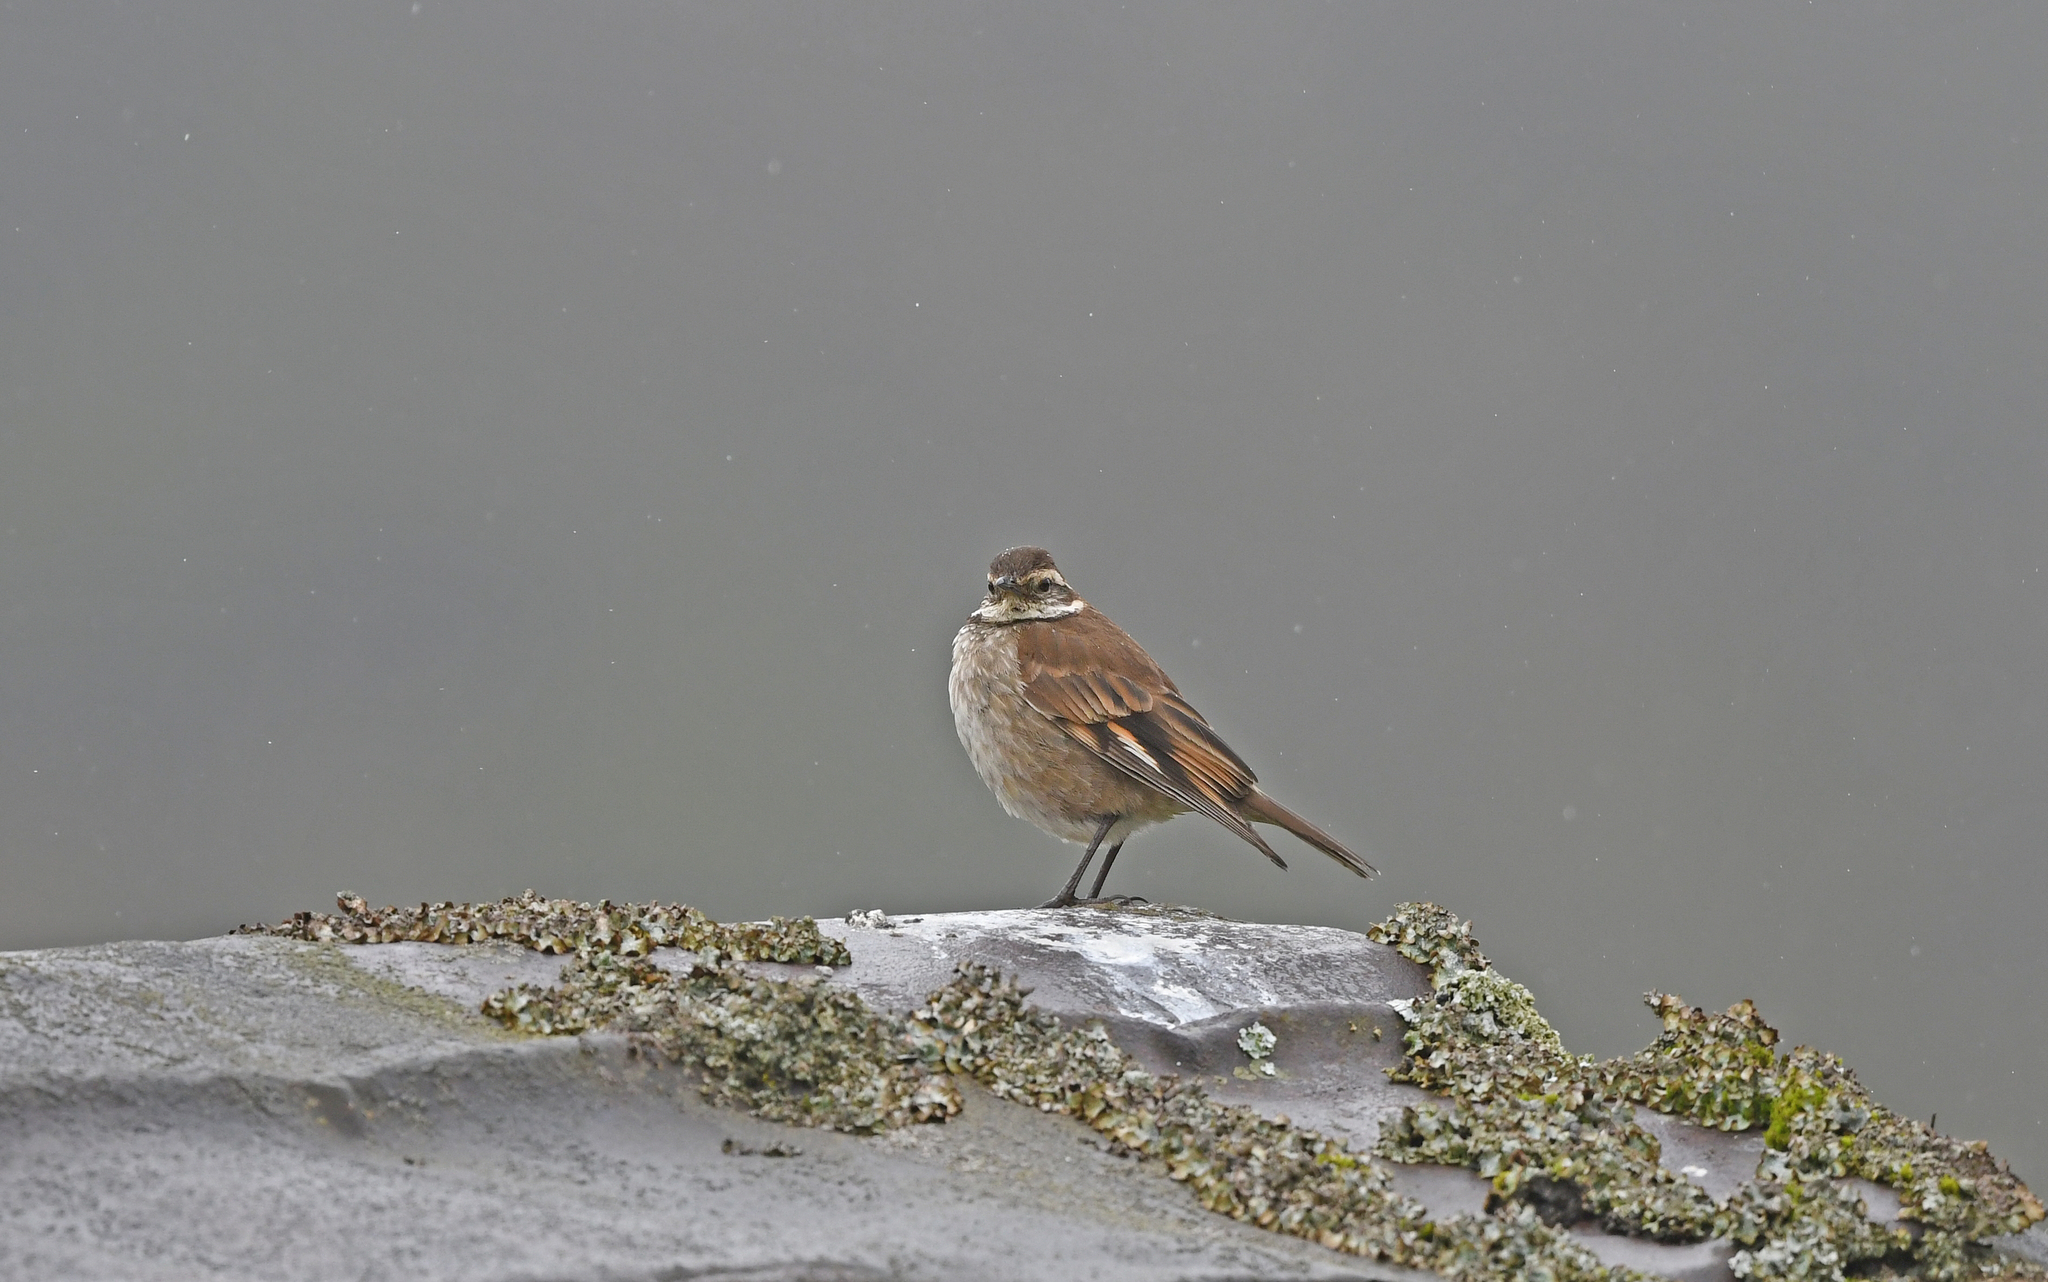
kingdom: Animalia
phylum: Chordata
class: Aves
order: Passeriformes
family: Furnariidae
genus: Cinclodes
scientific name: Cinclodes albidiventris
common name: Chestnut-winged cinclodes
